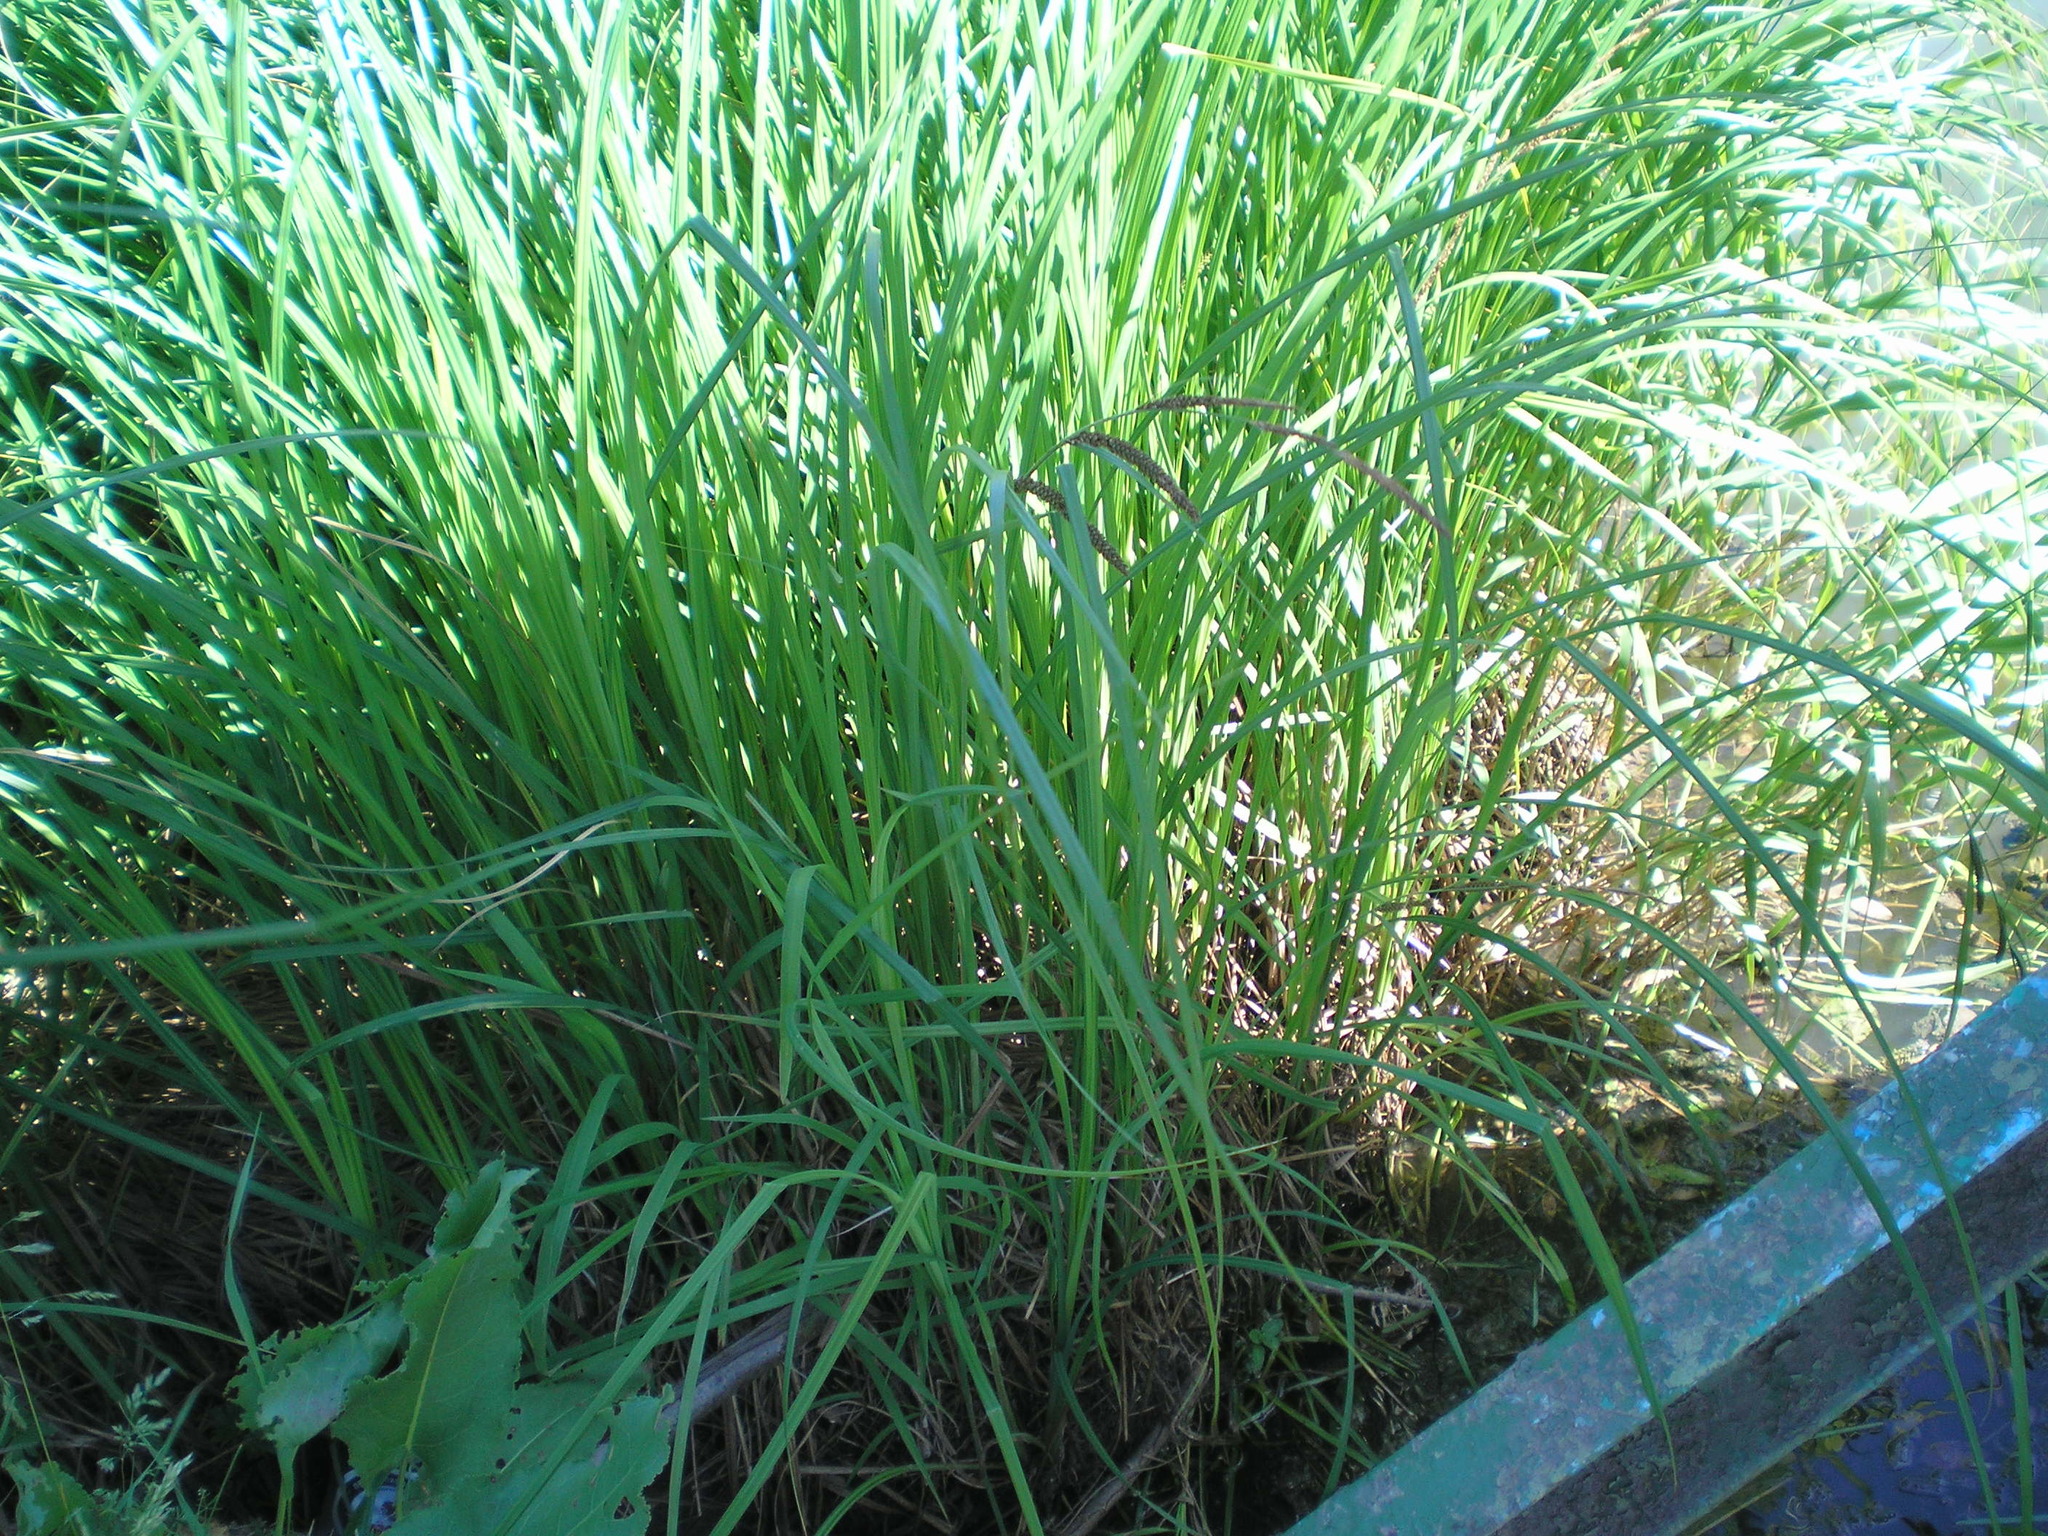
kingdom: Plantae
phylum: Tracheophyta
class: Liliopsida
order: Poales
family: Cyperaceae
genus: Carex
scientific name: Carex acuta
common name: Slender tufted-sedge
